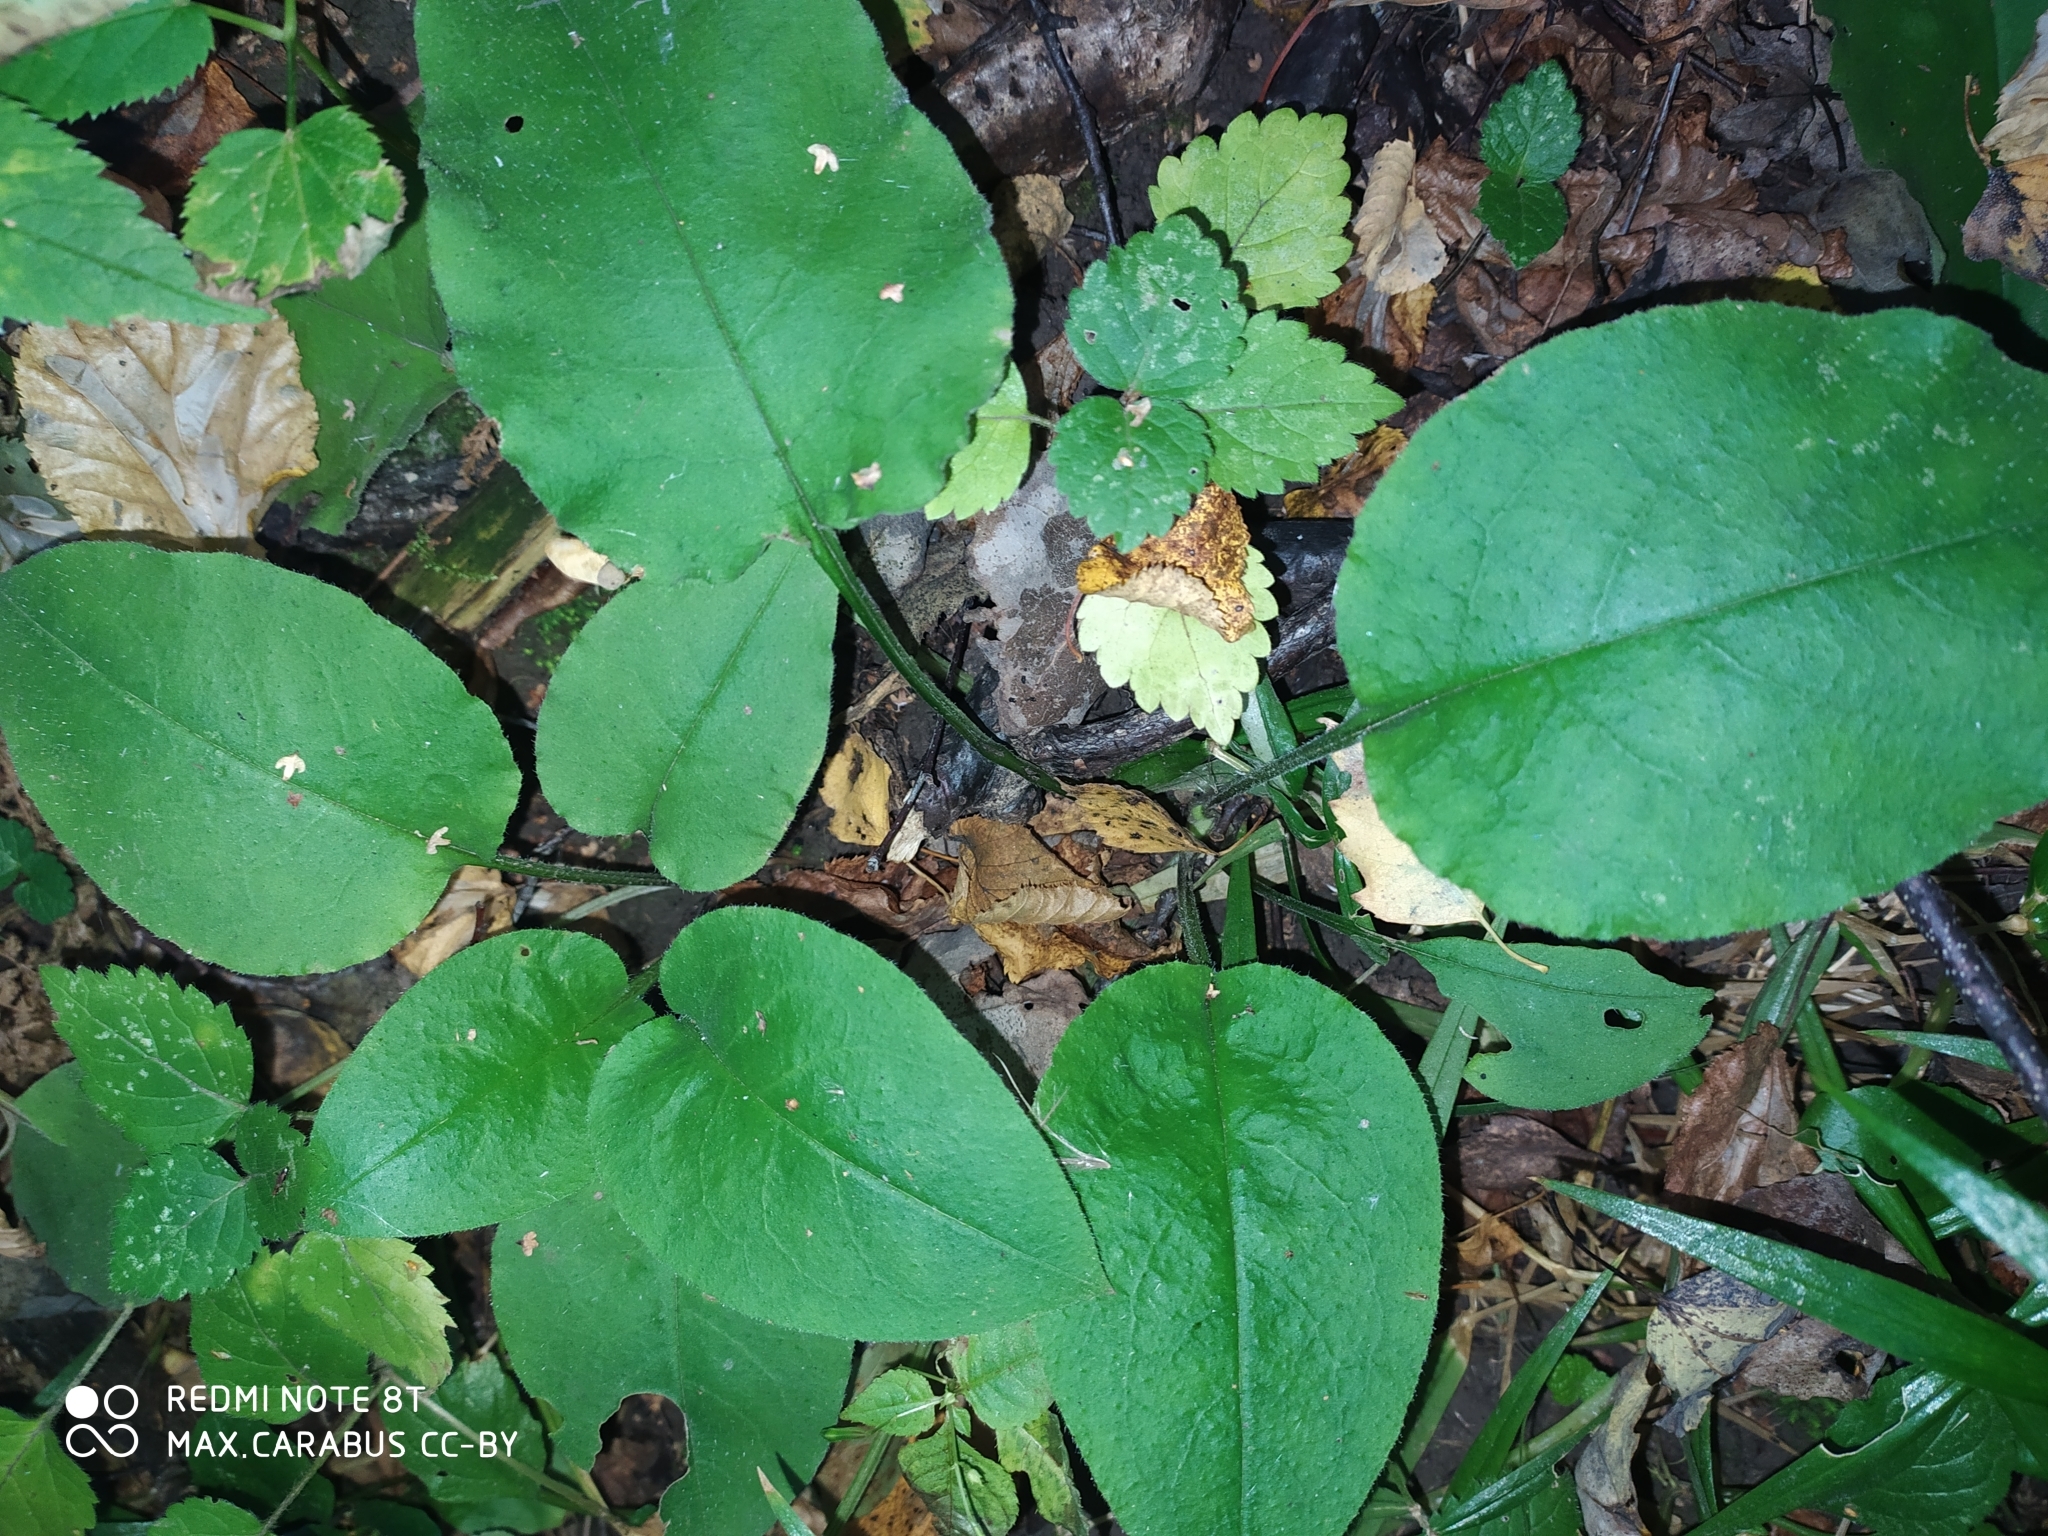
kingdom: Plantae
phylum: Tracheophyta
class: Magnoliopsida
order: Boraginales
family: Boraginaceae
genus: Pulmonaria
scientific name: Pulmonaria obscura
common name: Suffolk lungwort
